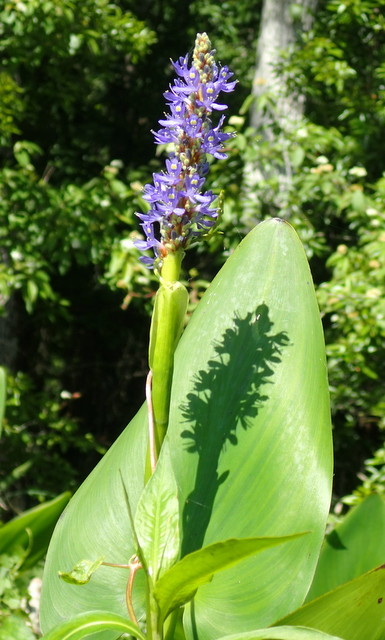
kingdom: Plantae
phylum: Tracheophyta
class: Liliopsida
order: Commelinales
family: Pontederiaceae
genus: Pontederia
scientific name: Pontederia cordata
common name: Pickerelweed
